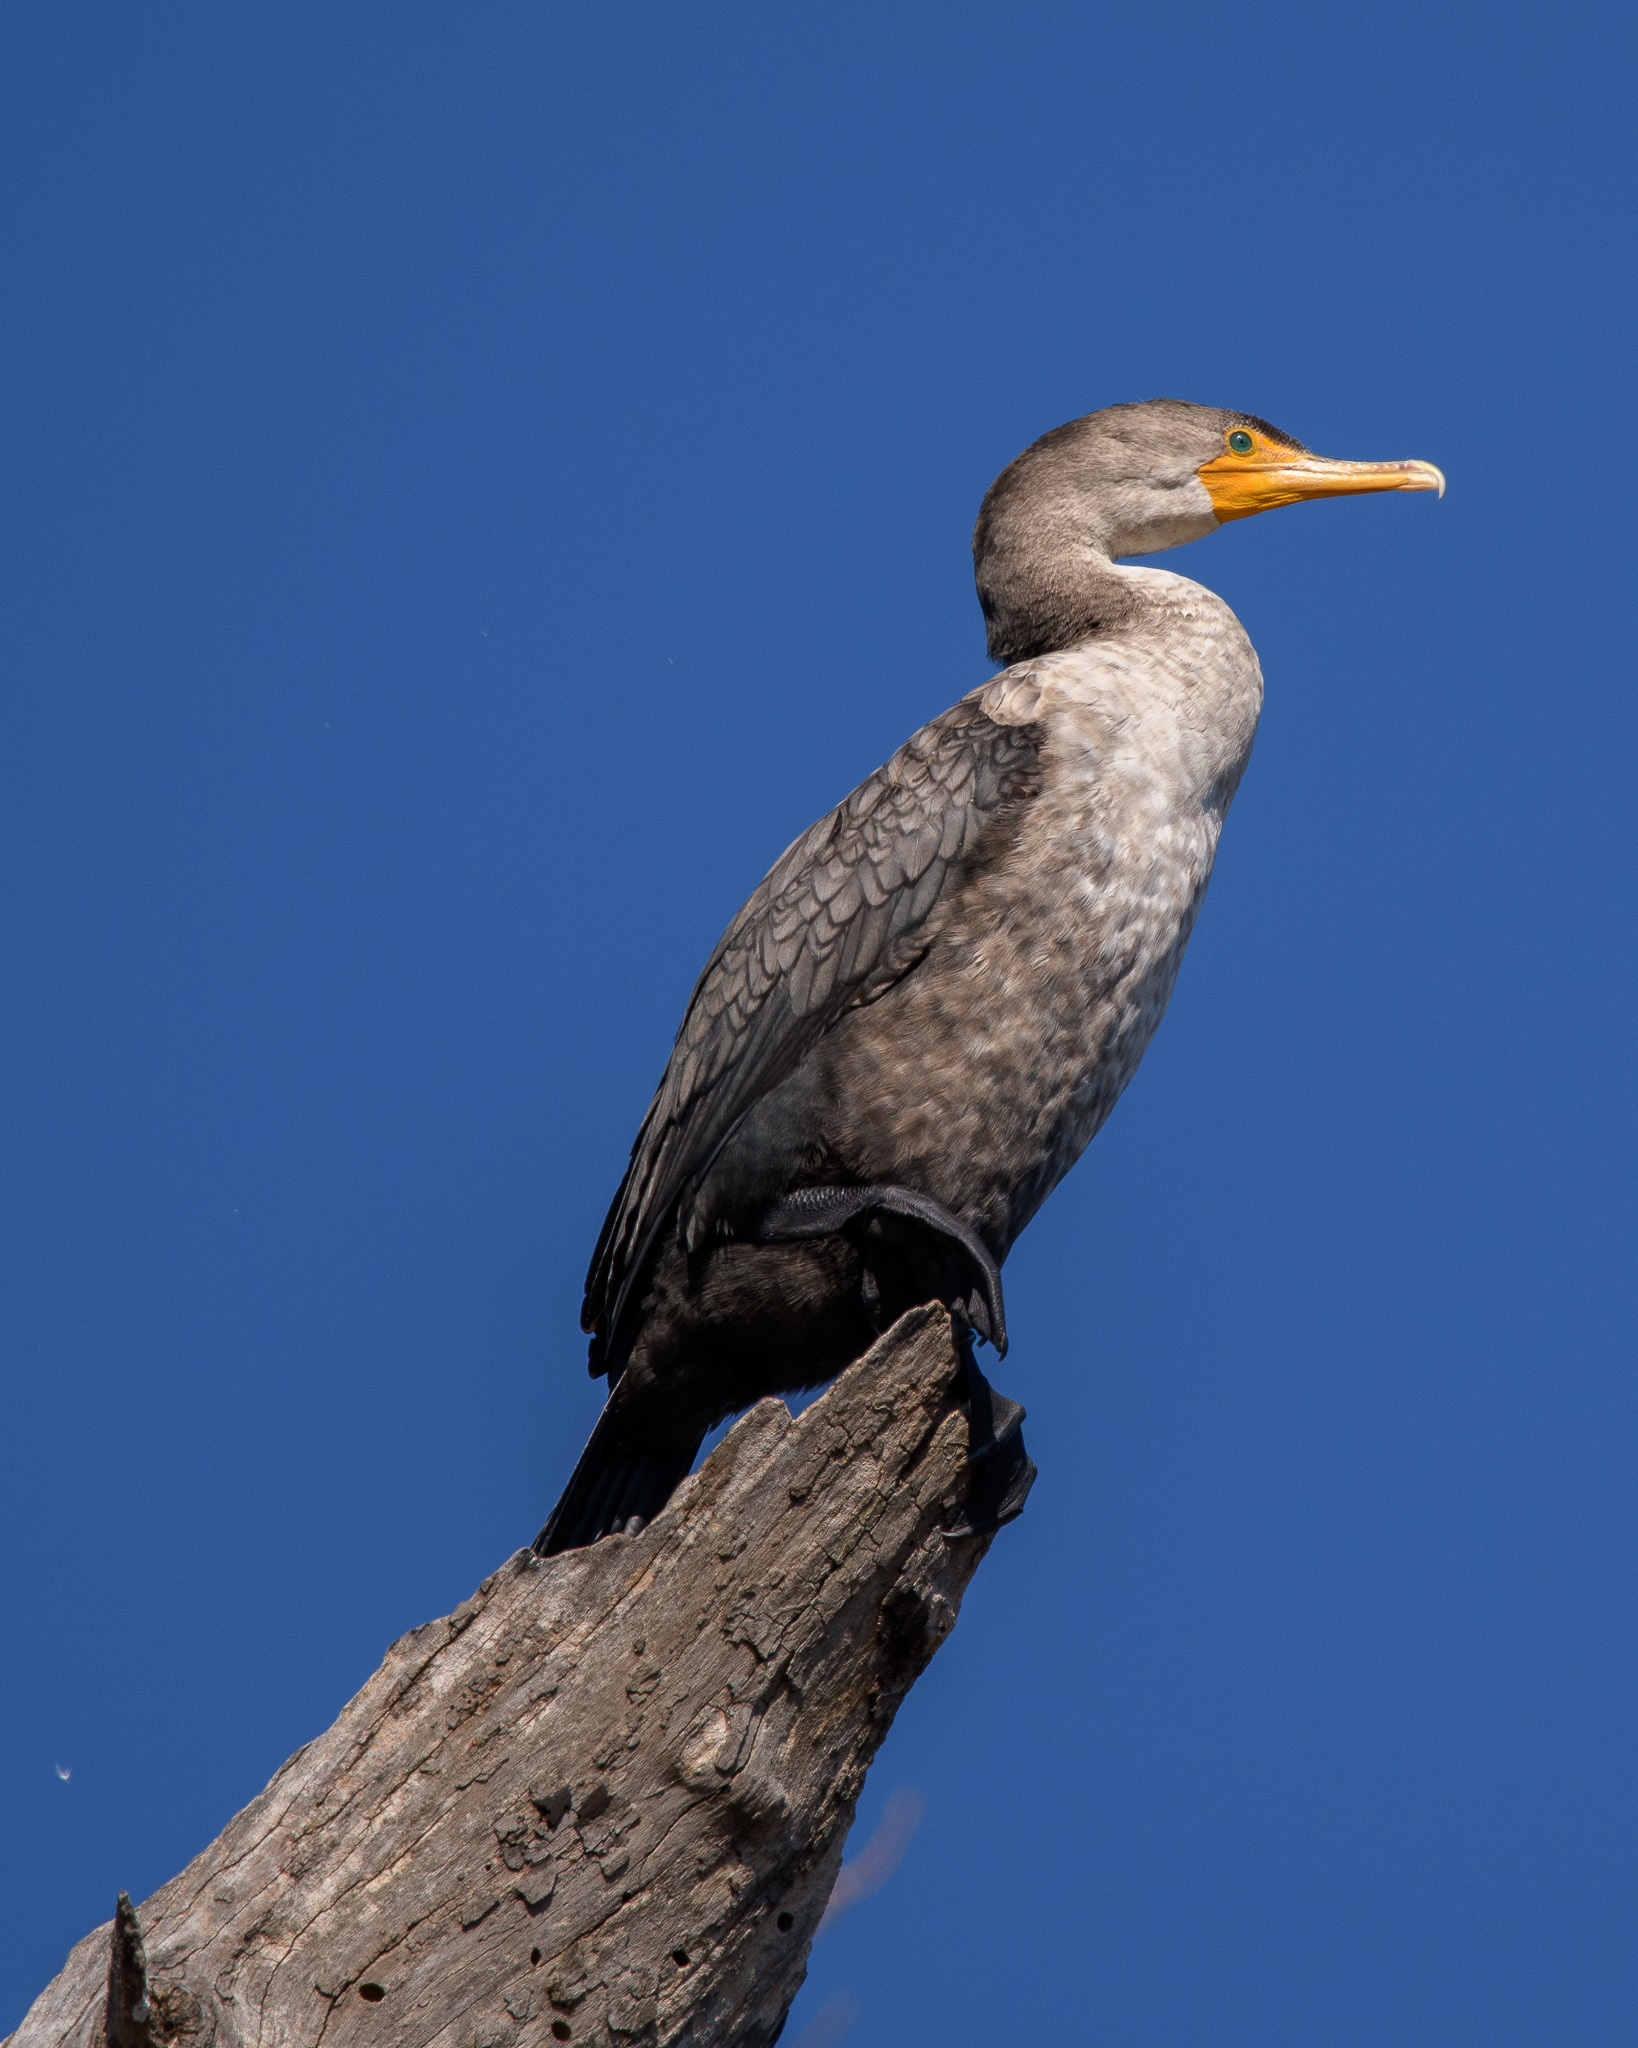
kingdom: Animalia
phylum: Chordata
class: Aves
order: Suliformes
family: Phalacrocoracidae
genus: Phalacrocorax
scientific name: Phalacrocorax auritus
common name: Double-crested cormorant
